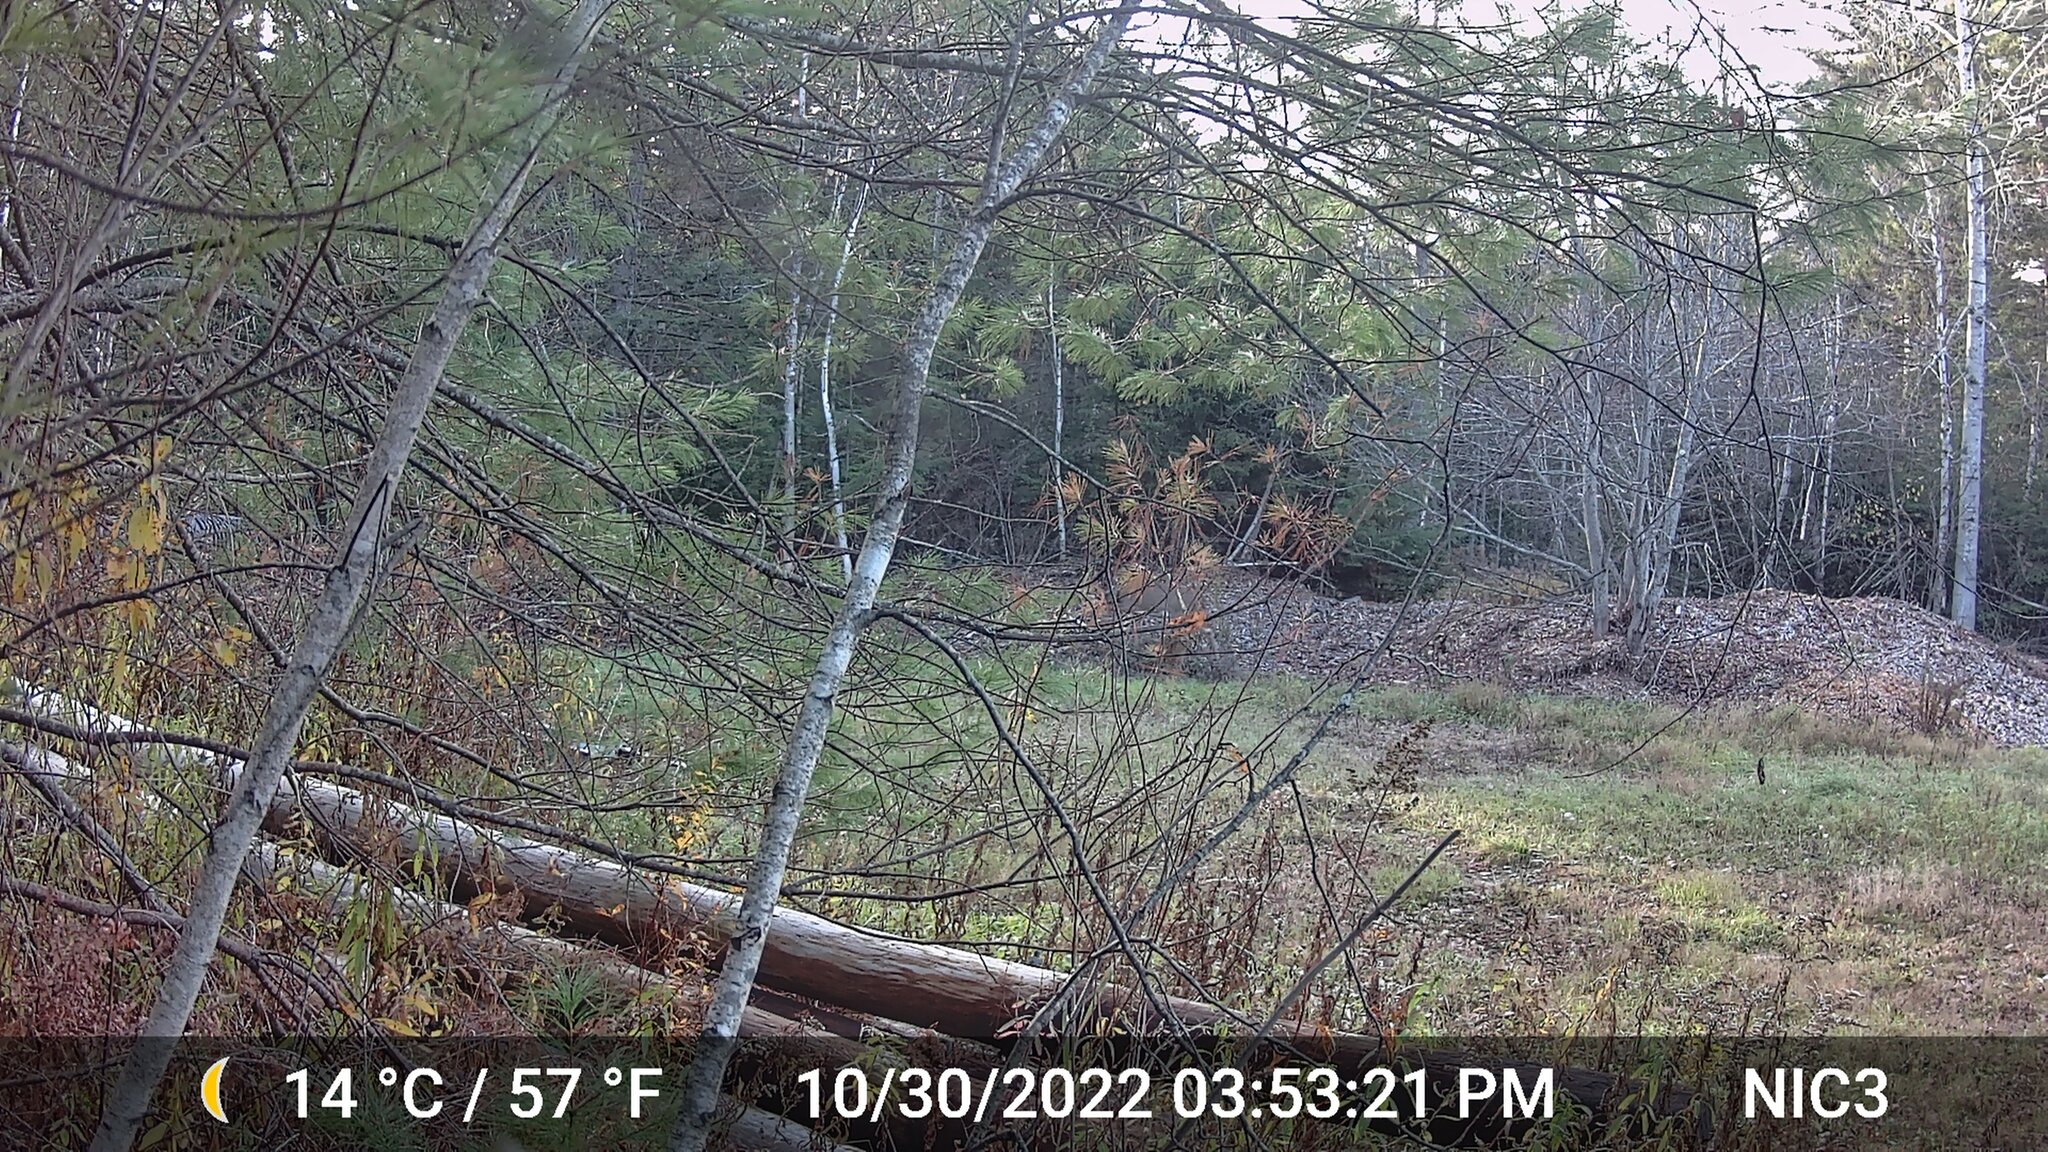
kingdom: Animalia
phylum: Chordata
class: Mammalia
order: Artiodactyla
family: Cervidae
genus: Odocoileus
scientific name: Odocoileus virginianus
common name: White-tailed deer
